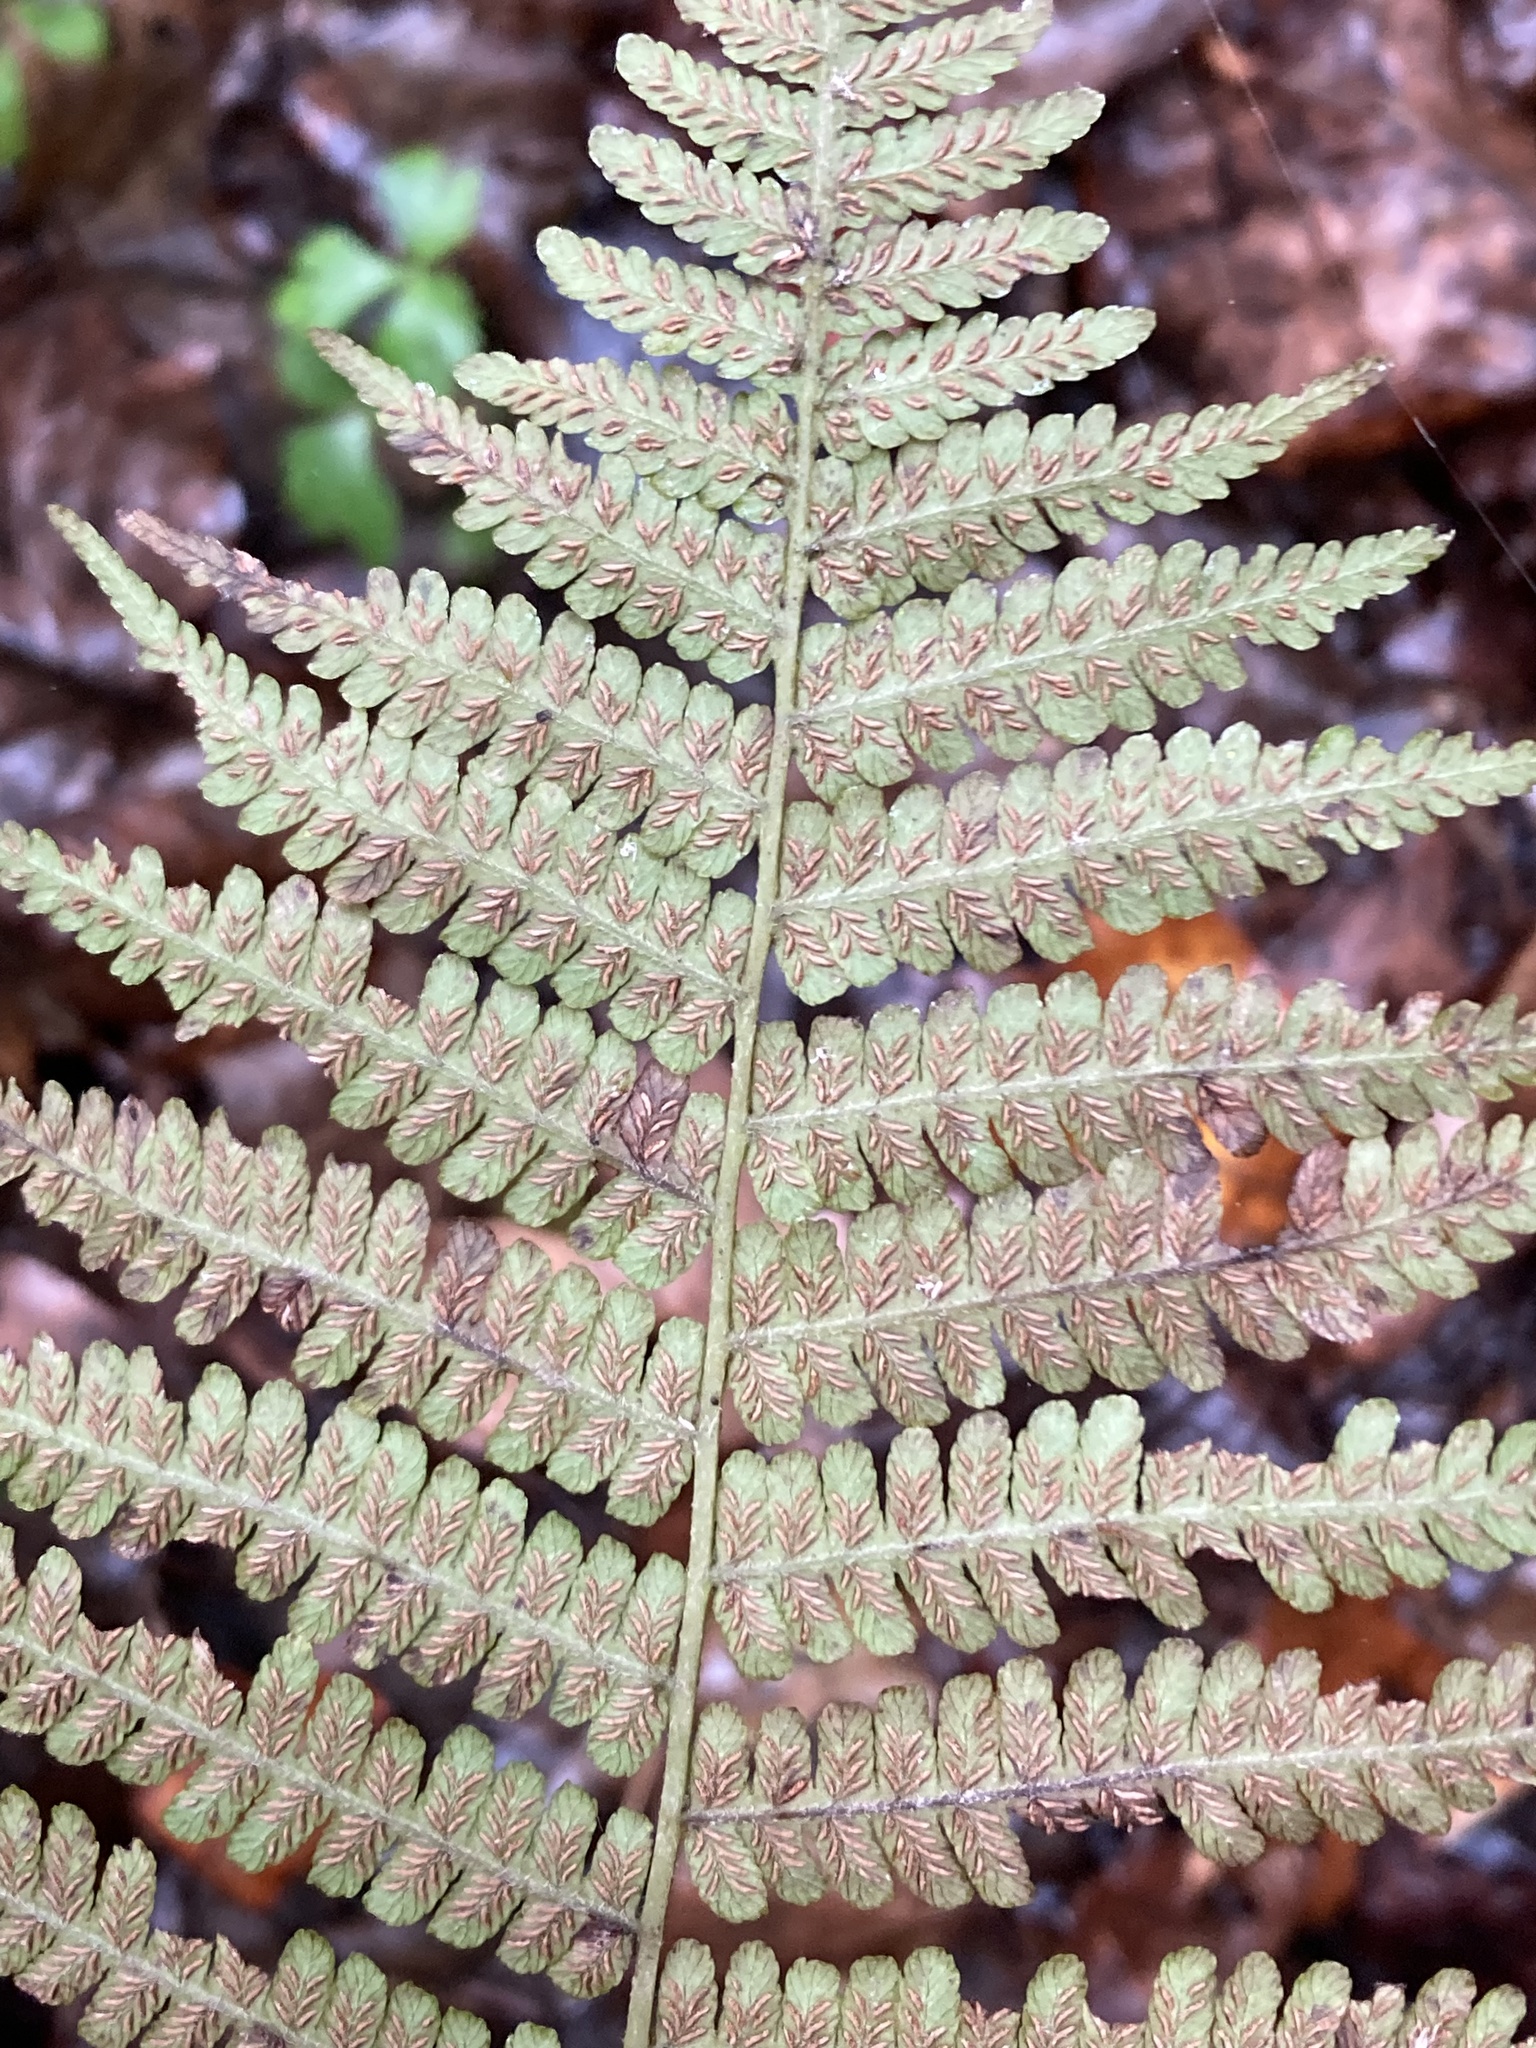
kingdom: Plantae
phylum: Tracheophyta
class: Polypodiopsida
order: Polypodiales
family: Athyriaceae
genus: Deparia
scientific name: Deparia acrostichoides
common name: Silver false spleenwort
